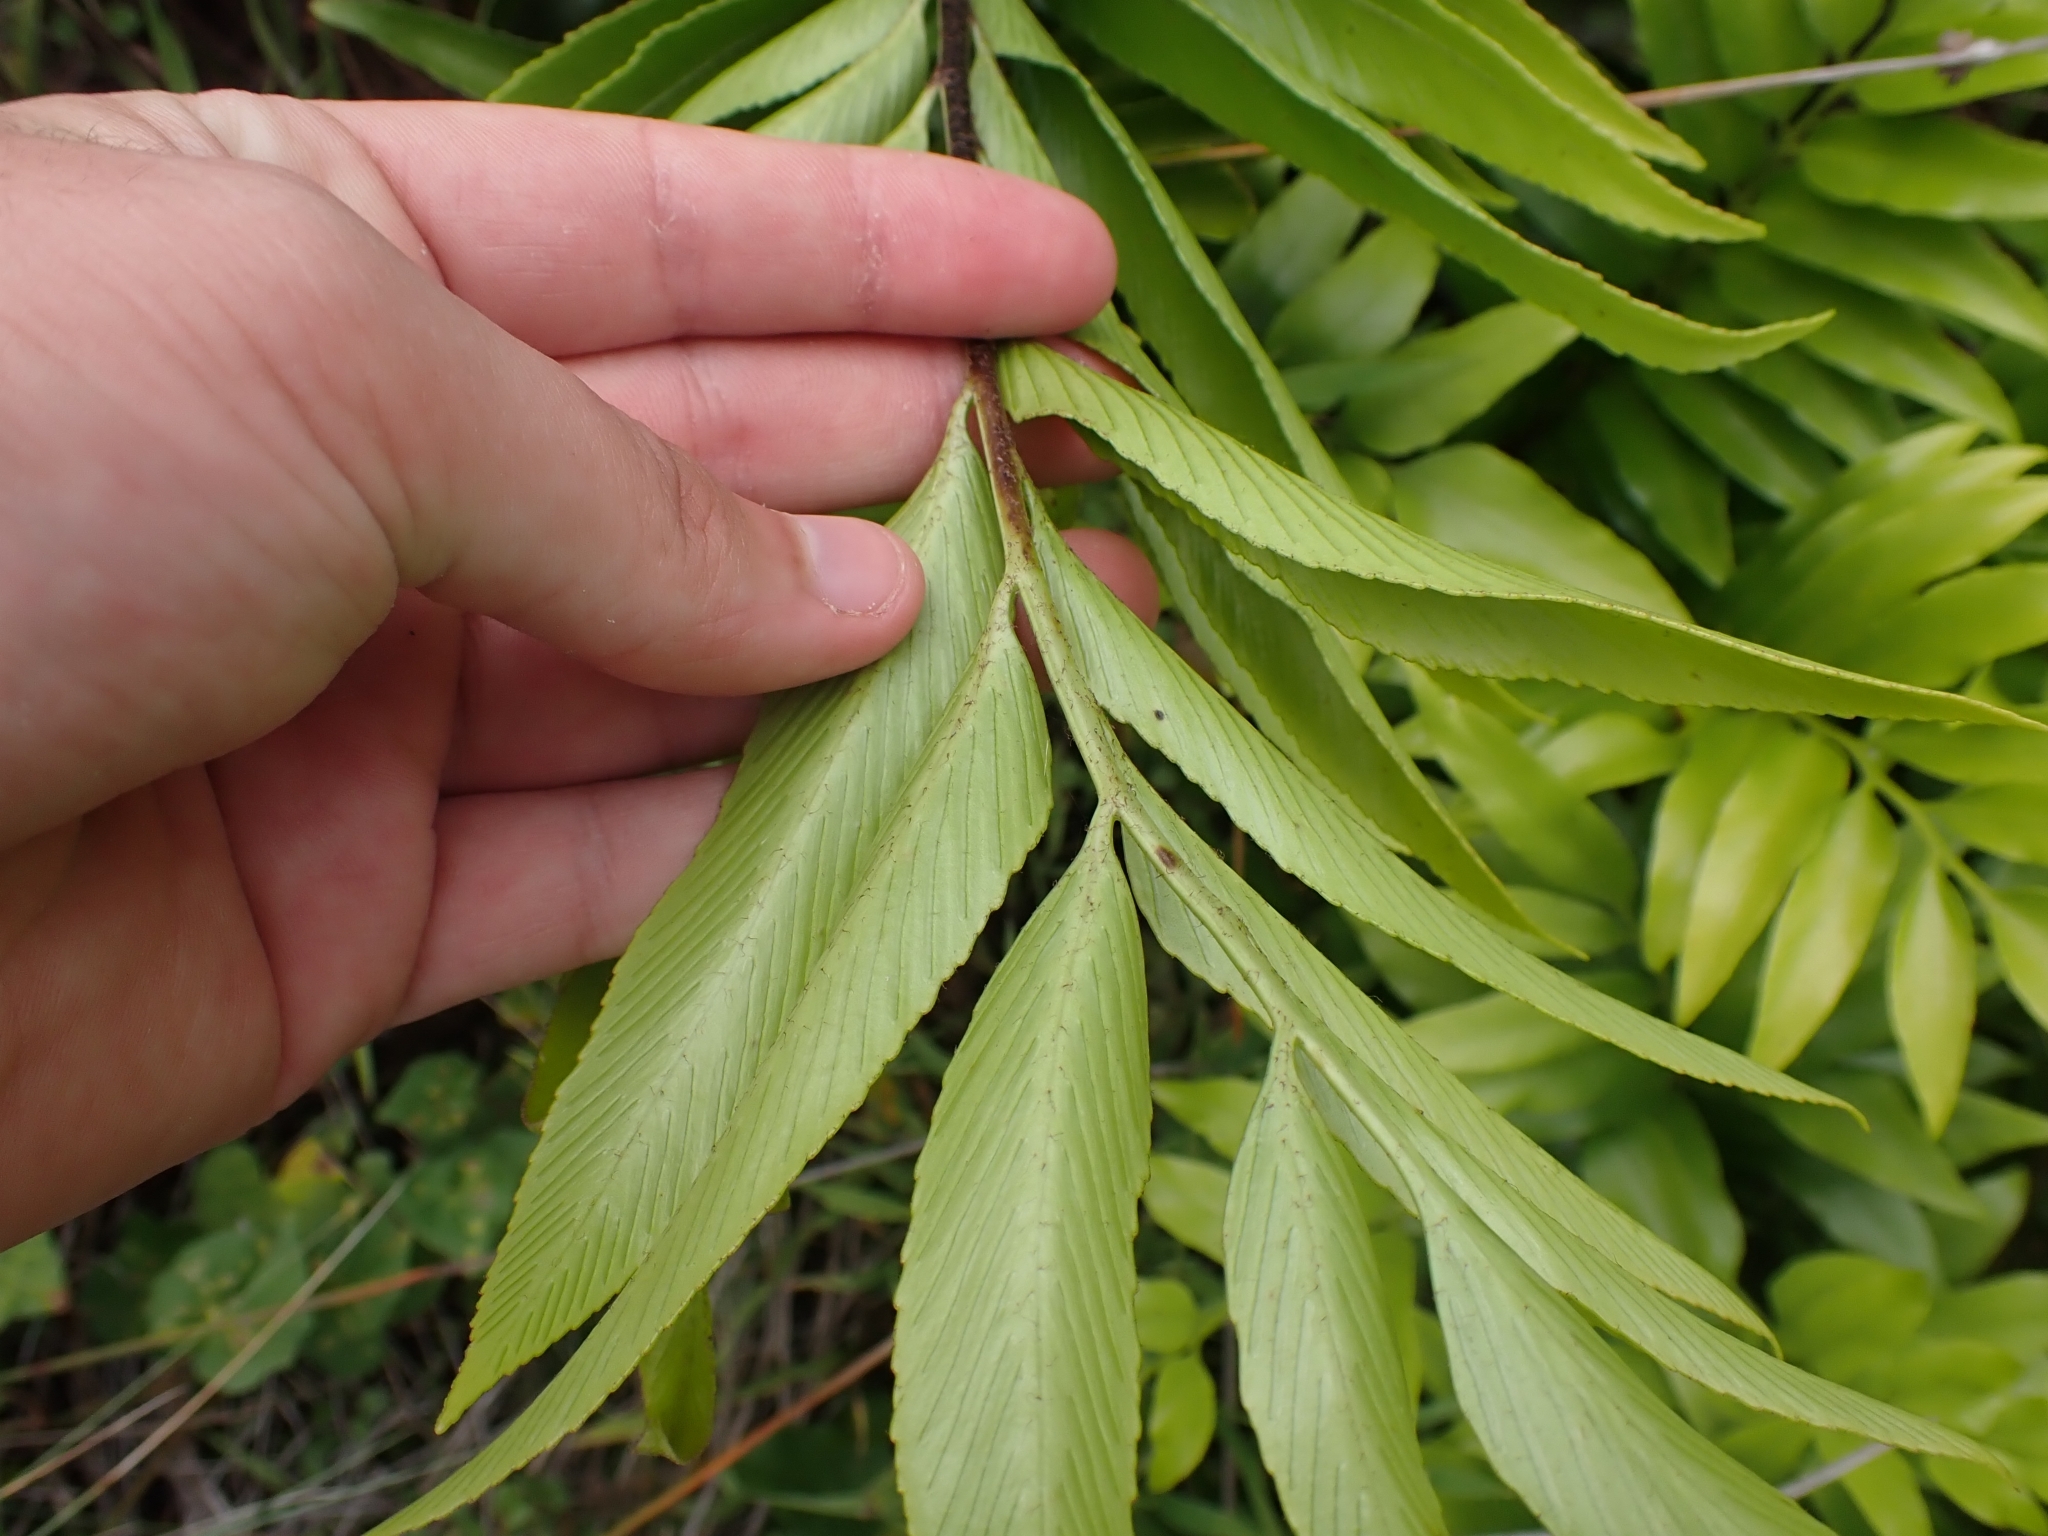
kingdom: Plantae
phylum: Tracheophyta
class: Polypodiopsida
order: Polypodiales
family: Aspleniaceae
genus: Asplenium
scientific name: Asplenium oblongifolium
